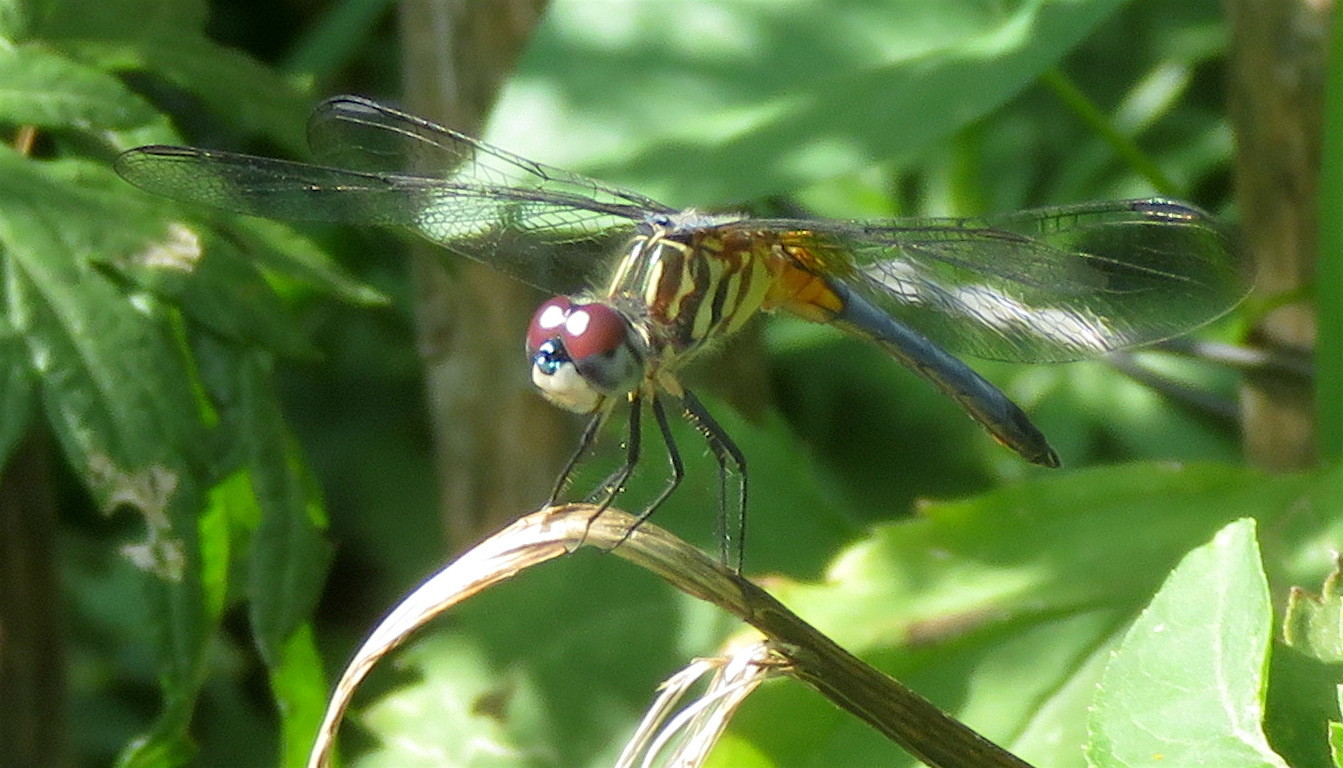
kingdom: Animalia
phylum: Arthropoda
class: Insecta
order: Odonata
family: Libellulidae
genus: Pachydiplax
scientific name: Pachydiplax longipennis
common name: Blue dasher
